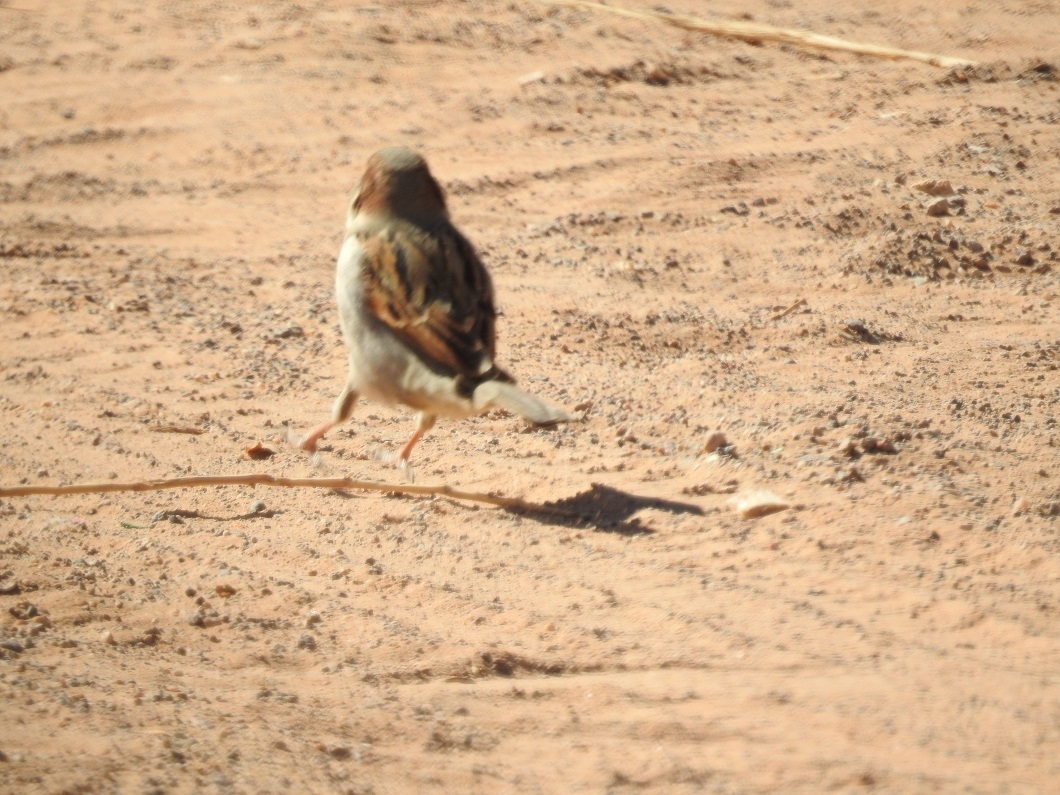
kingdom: Animalia
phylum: Chordata
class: Aves
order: Passeriformes
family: Passeridae
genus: Passer
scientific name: Passer domesticus
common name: House sparrow
